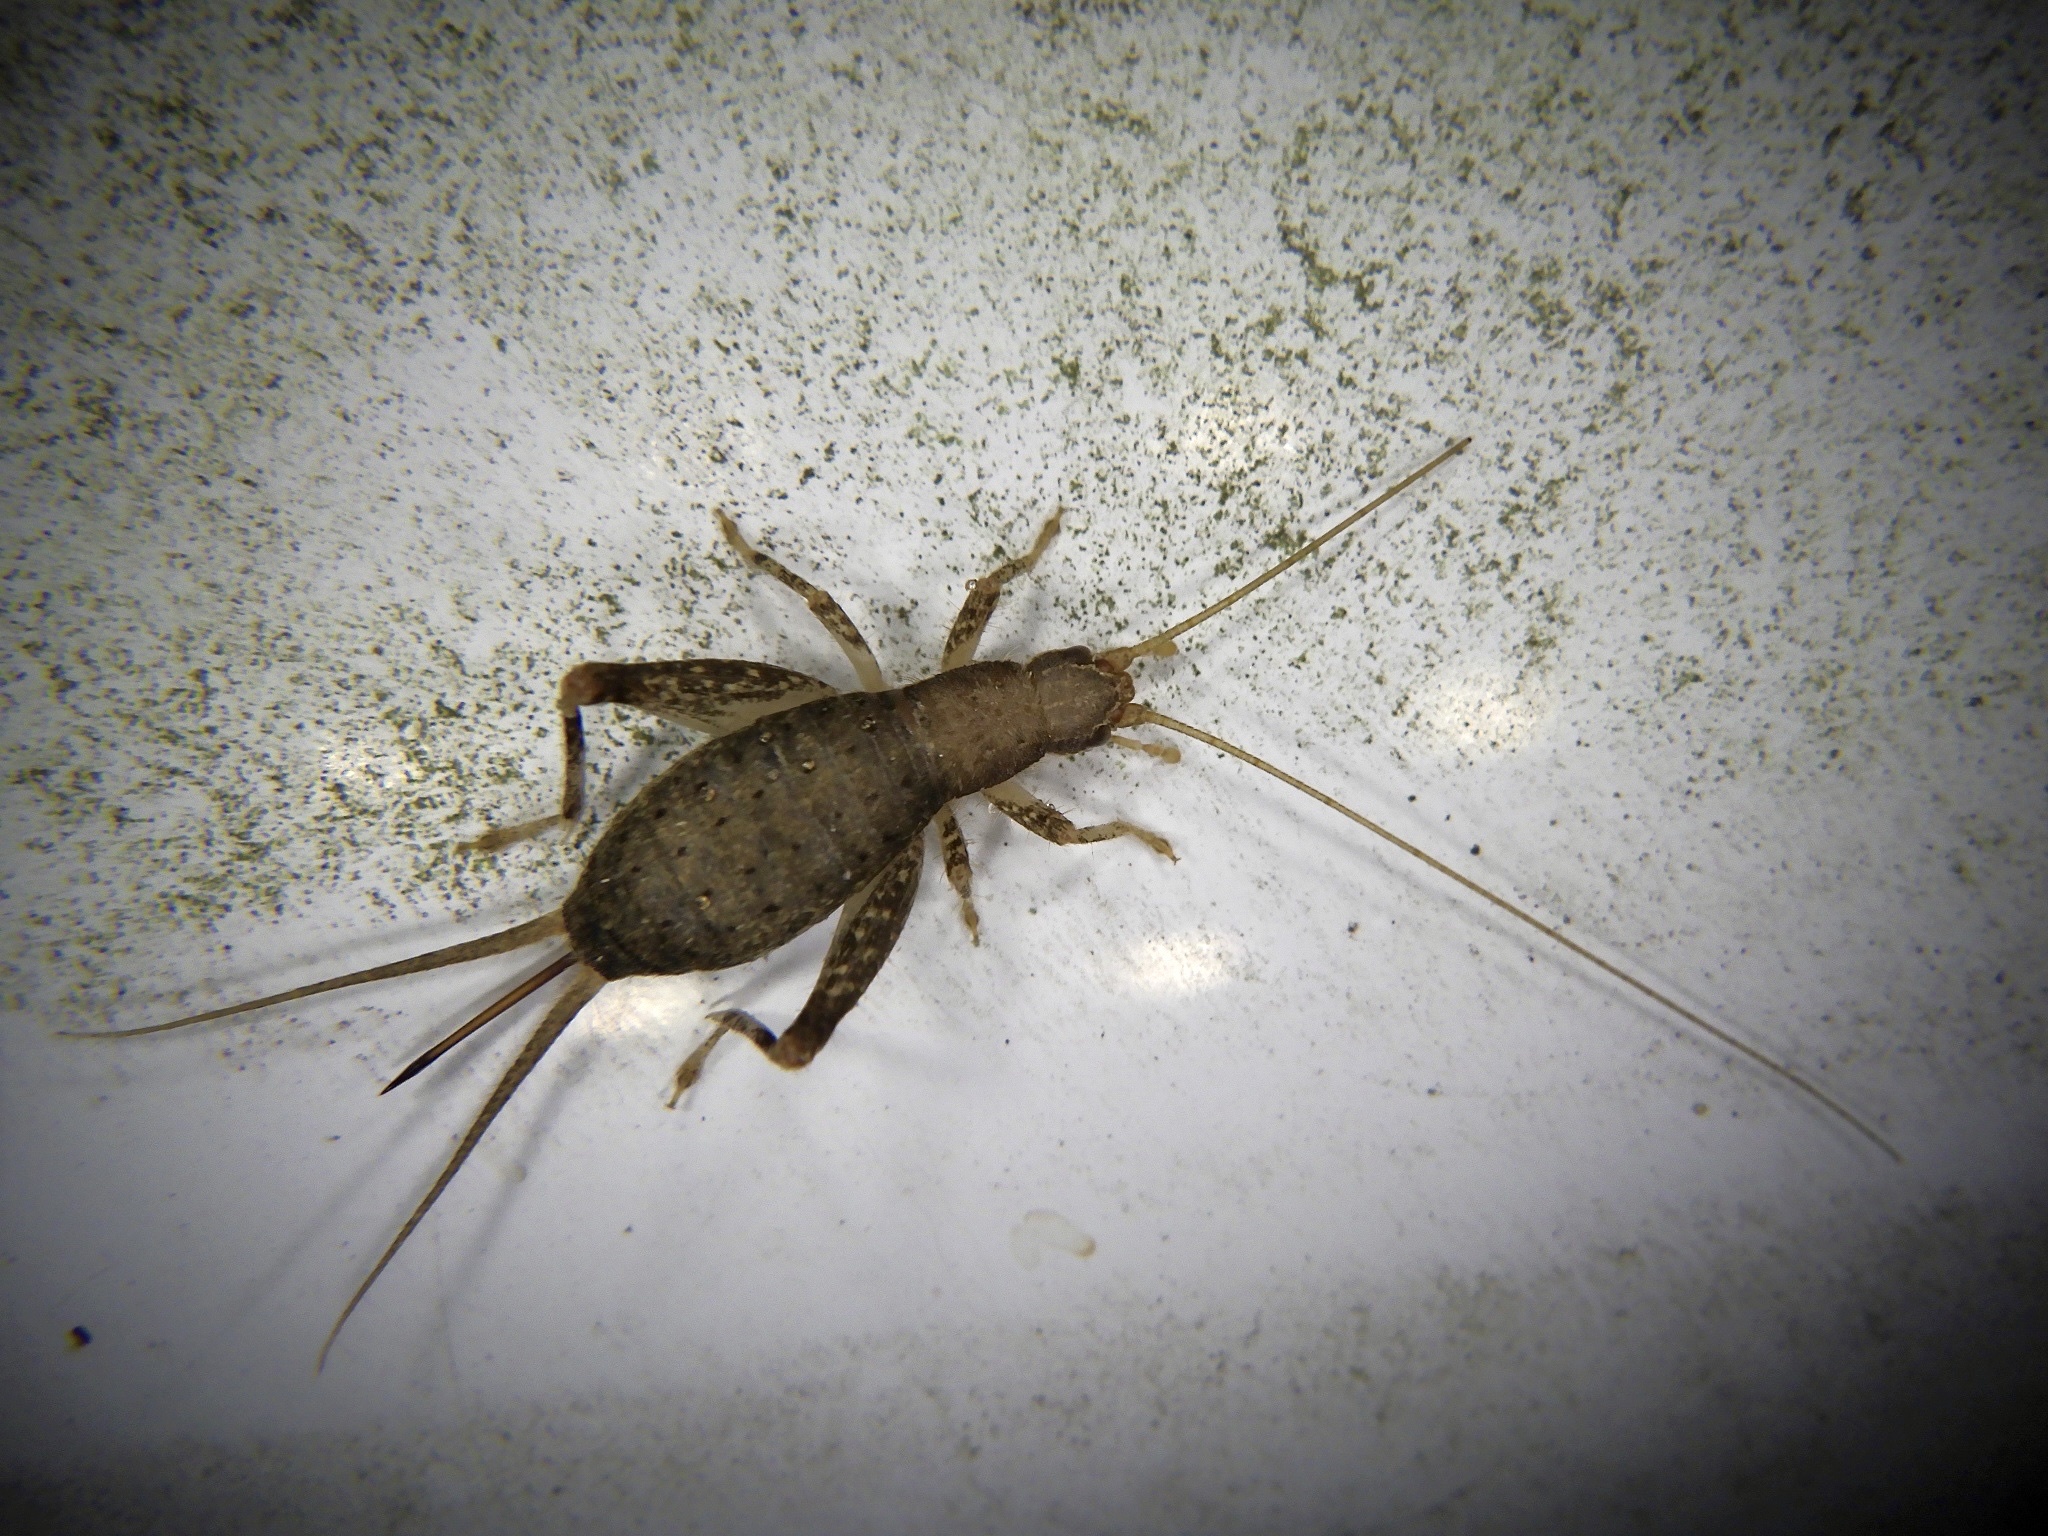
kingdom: Animalia
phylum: Arthropoda
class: Insecta
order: Orthoptera
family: Mogoplistidae
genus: Ornebius
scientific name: Ornebius kanetataki
